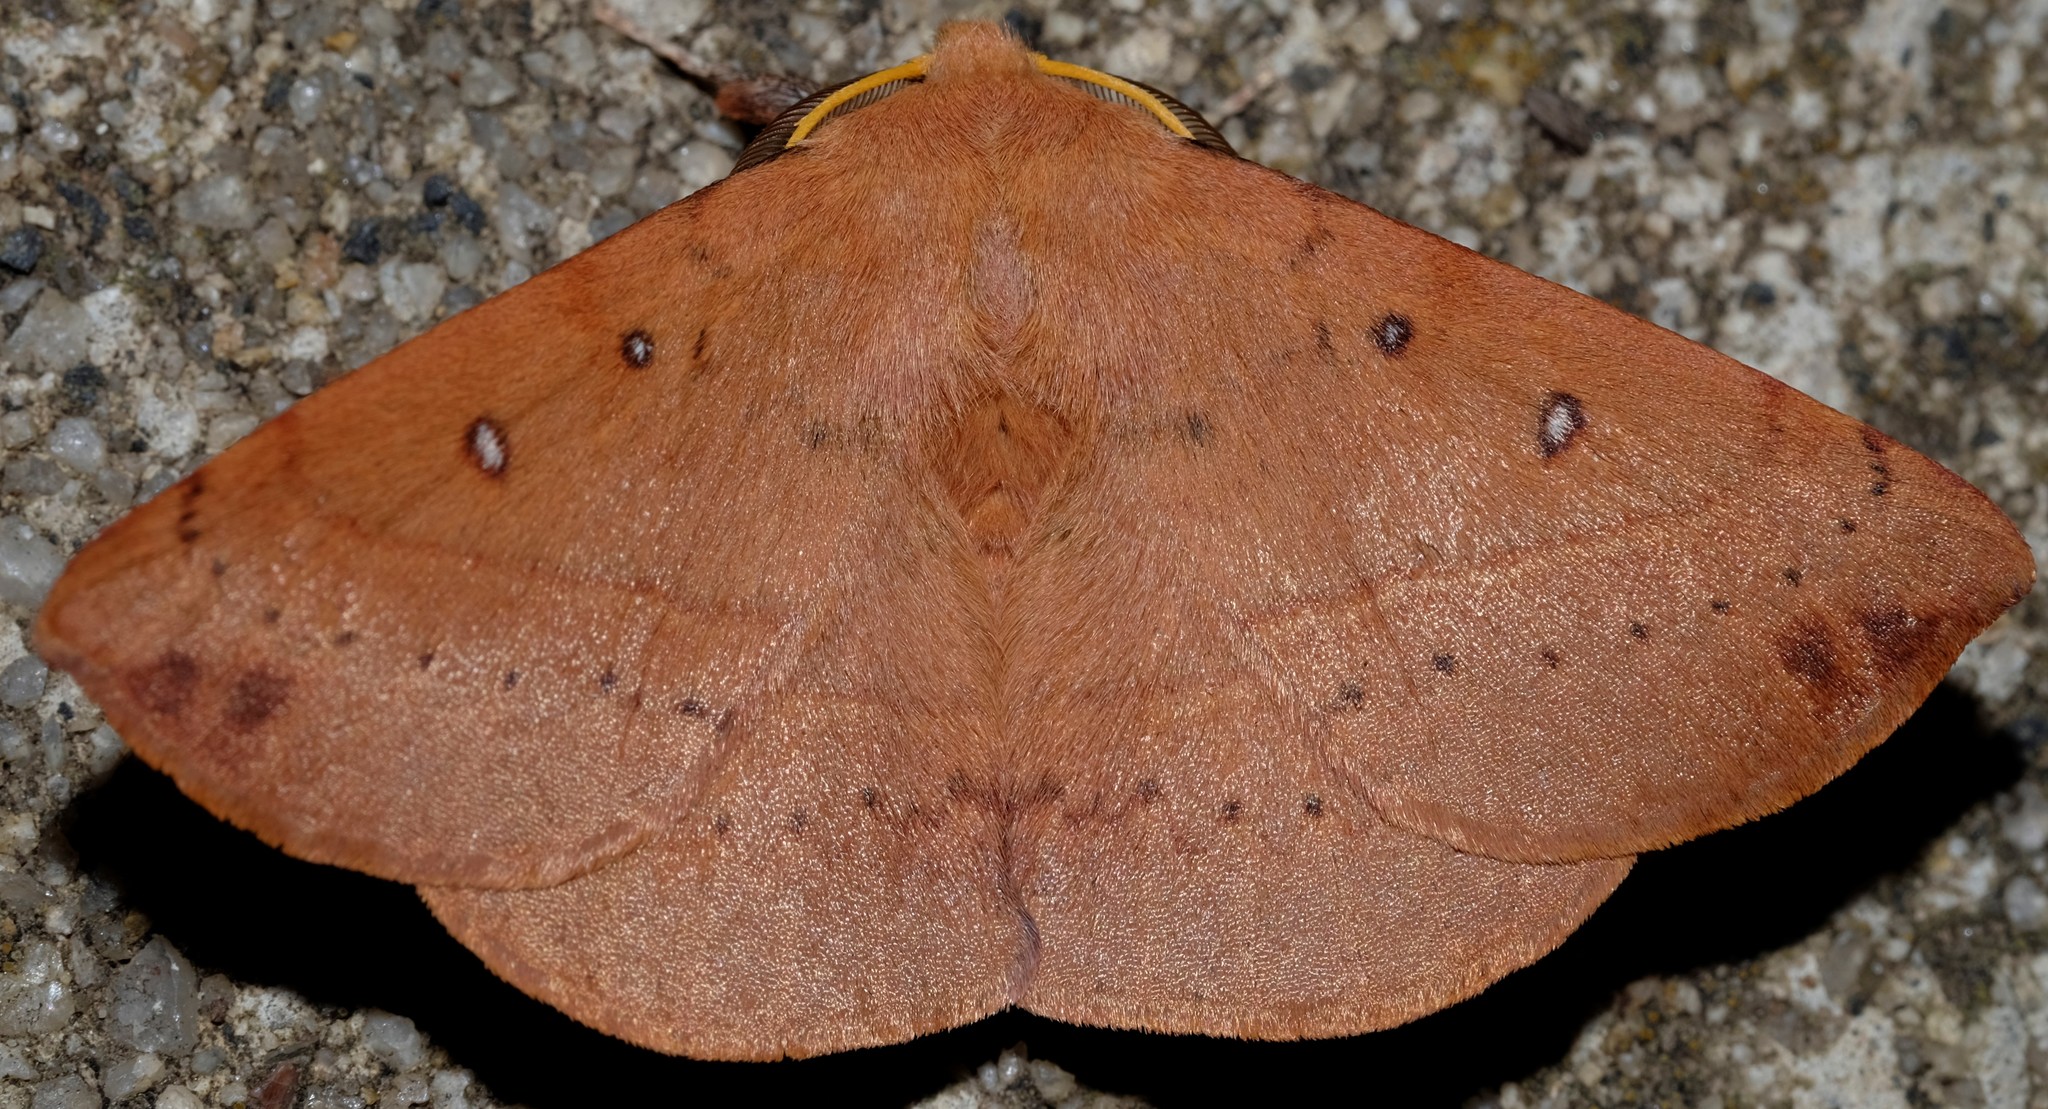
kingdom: Animalia
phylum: Arthropoda
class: Insecta
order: Lepidoptera
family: Anthelidae
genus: Anthela
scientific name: Anthela acuta
